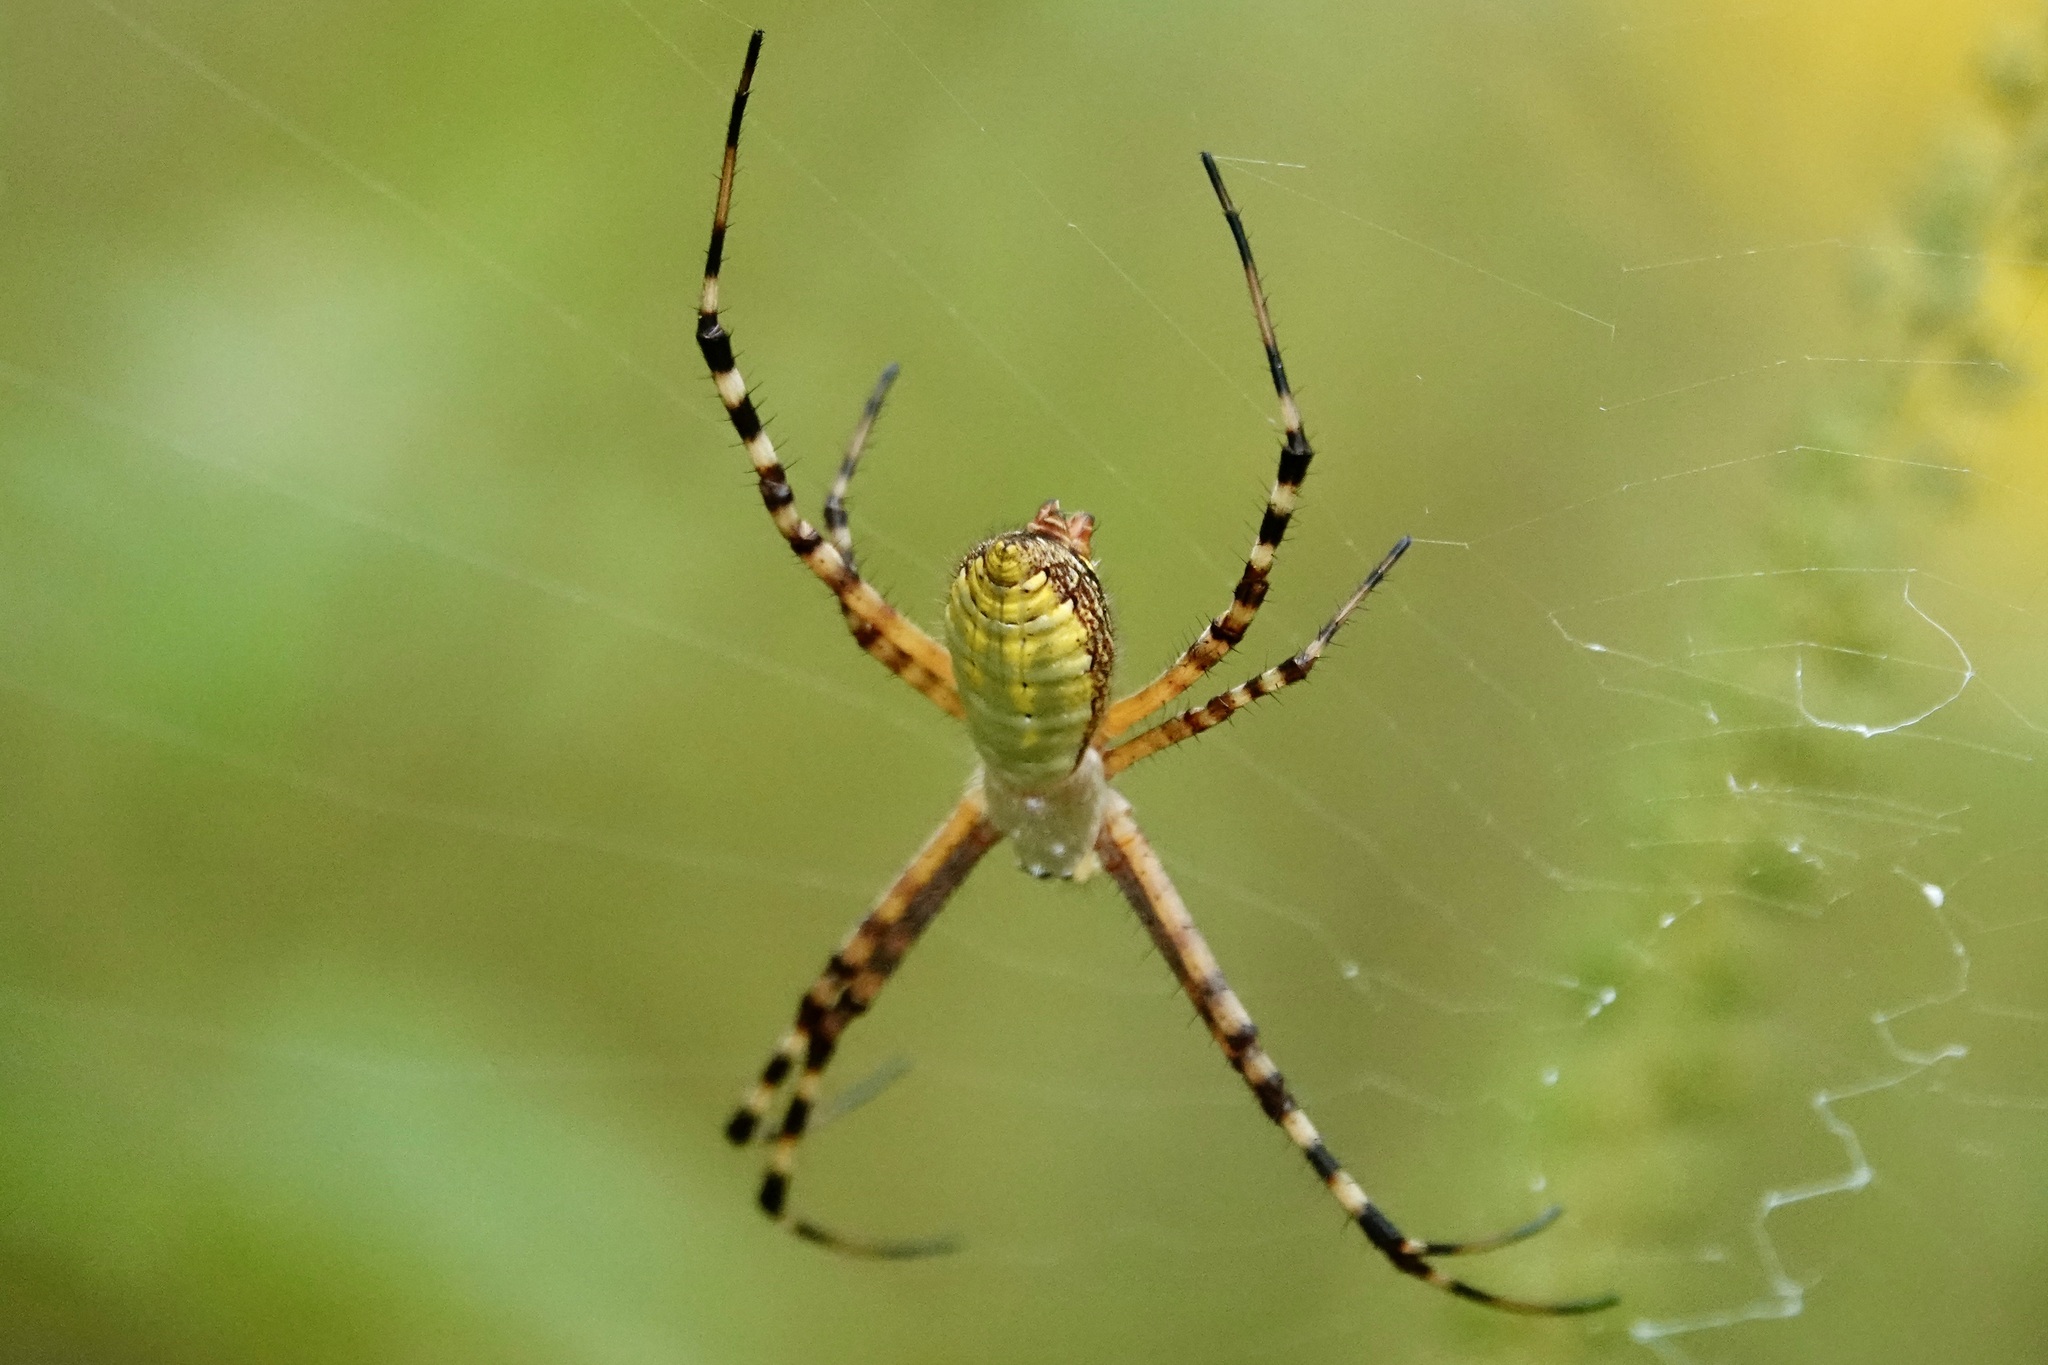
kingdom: Animalia
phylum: Arthropoda
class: Arachnida
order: Araneae
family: Araneidae
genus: Argiope
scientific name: Argiope trifasciata
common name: Banded garden spider
